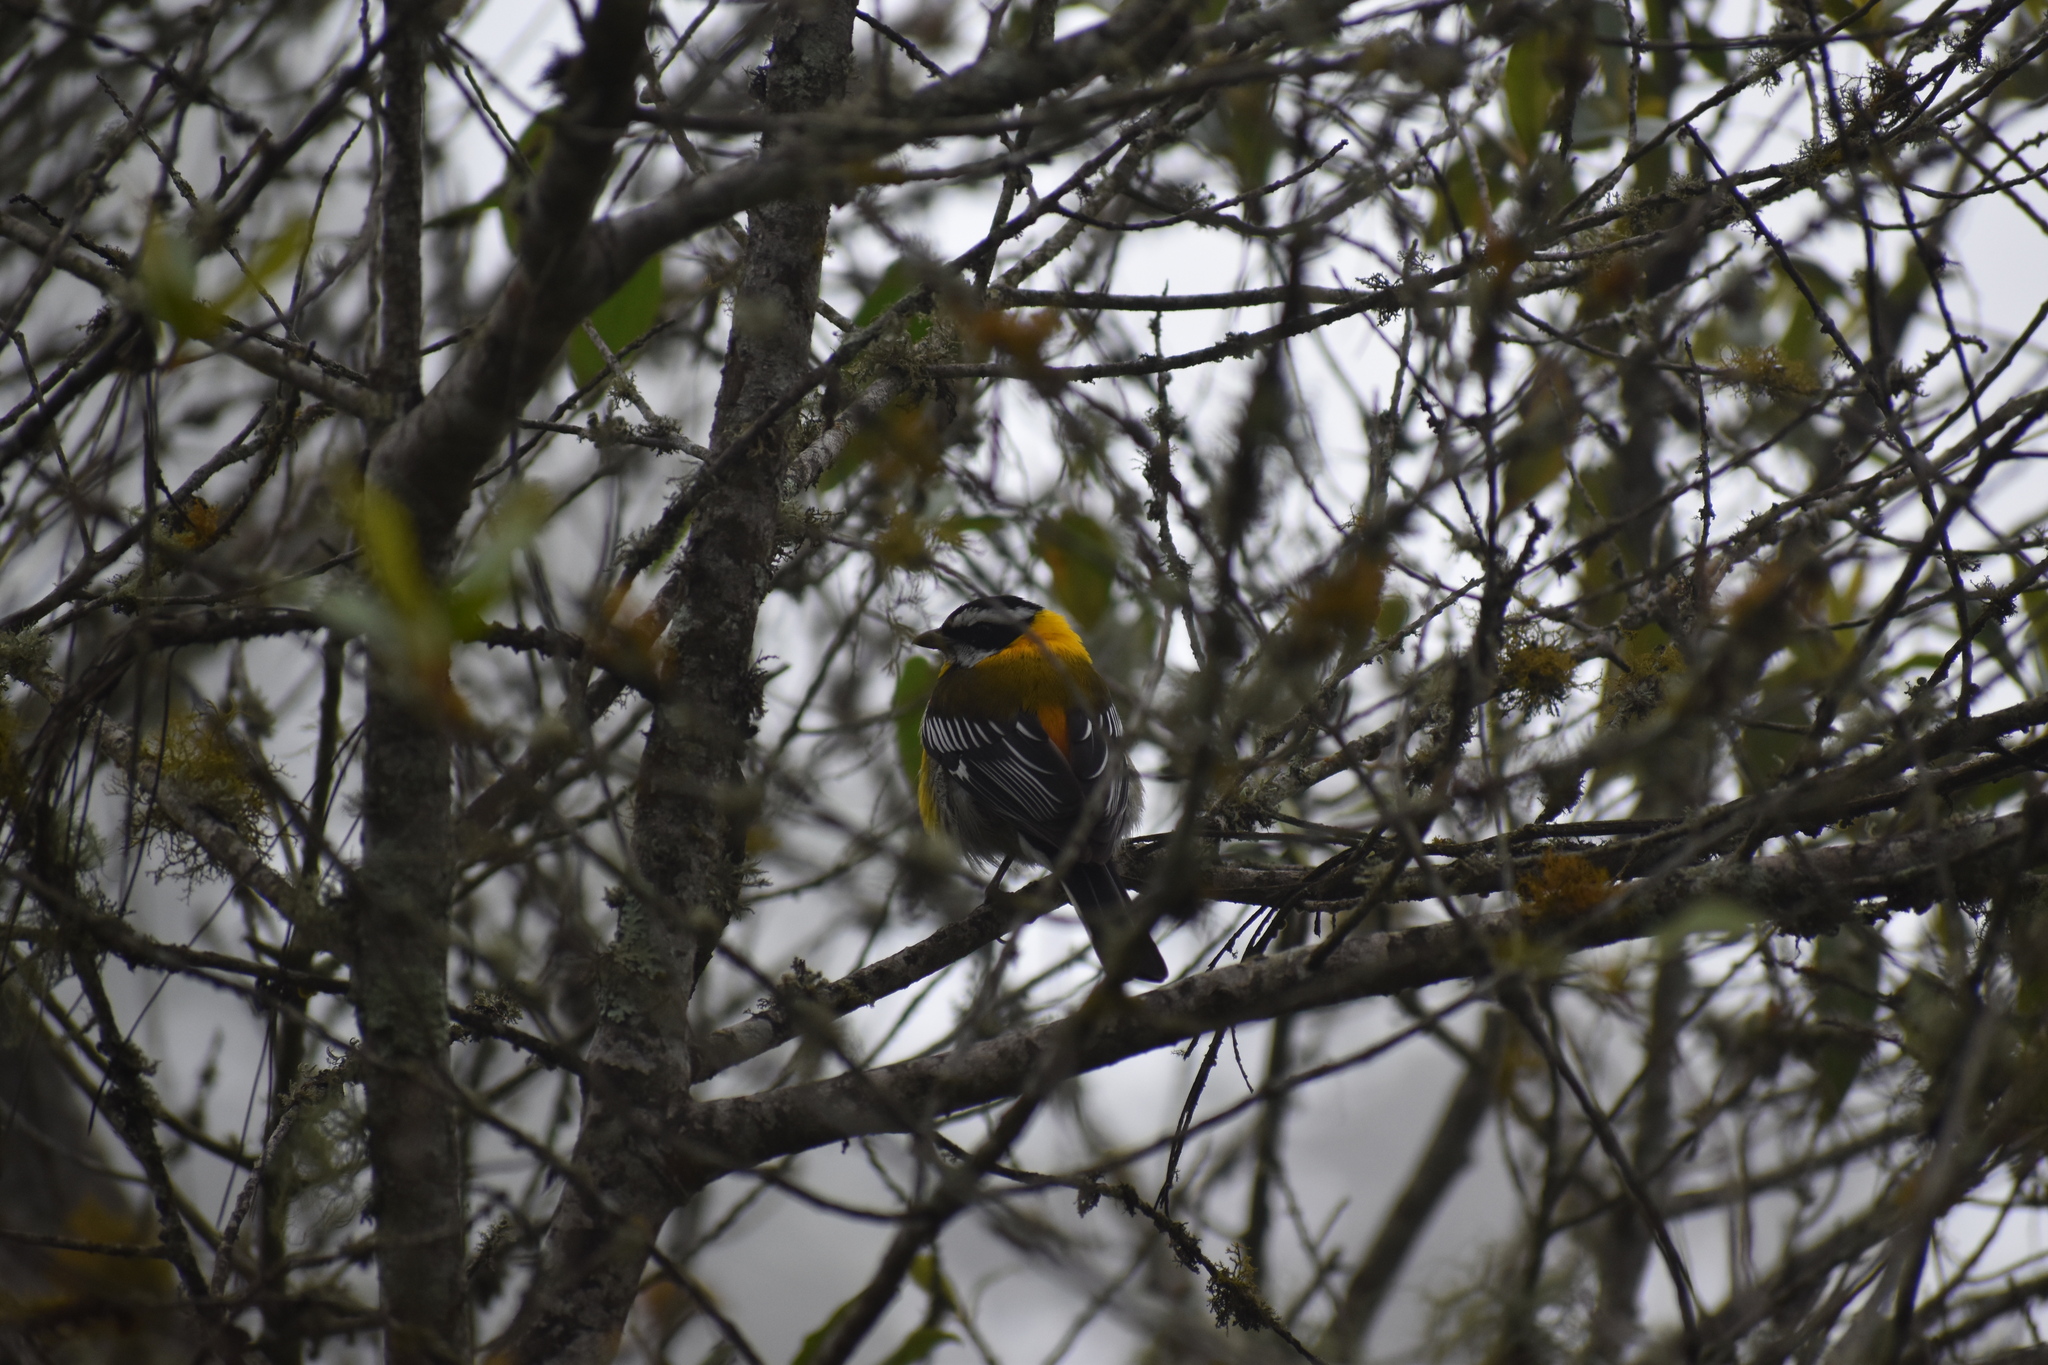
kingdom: Animalia
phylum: Chordata
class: Aves
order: Passeriformes
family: Spindalidae
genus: Spindalis
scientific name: Spindalis dominicensis
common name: Hispaniolan spindalis
